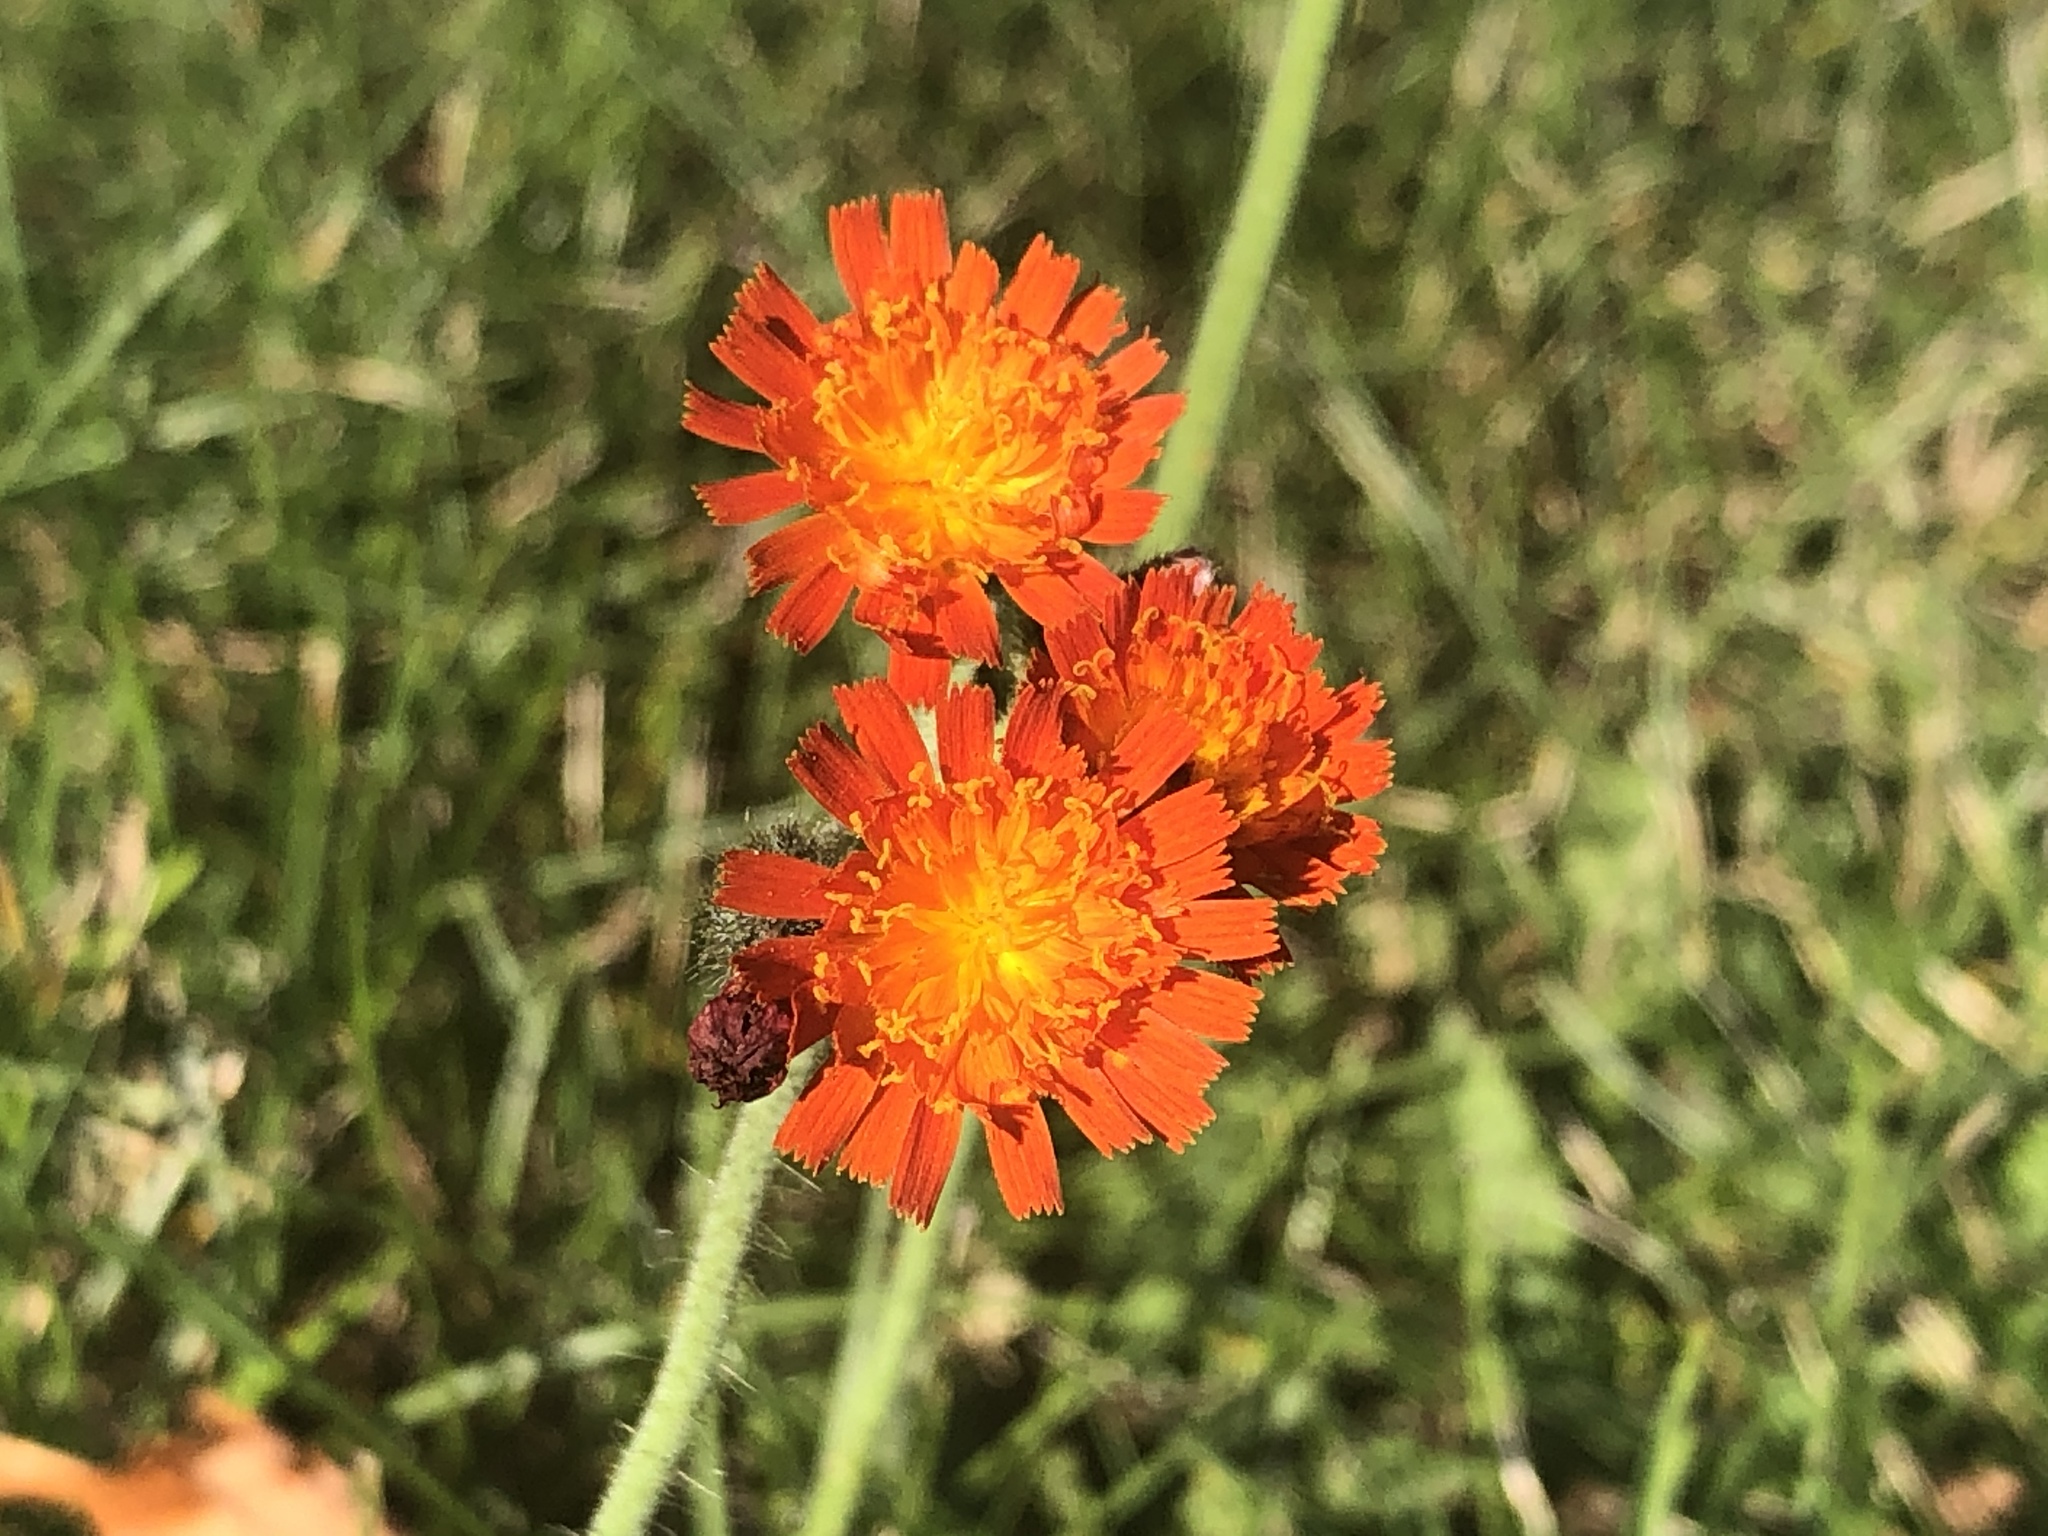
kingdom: Plantae
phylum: Tracheophyta
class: Magnoliopsida
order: Asterales
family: Asteraceae
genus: Pilosella
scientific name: Pilosella aurantiaca
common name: Fox-and-cubs
